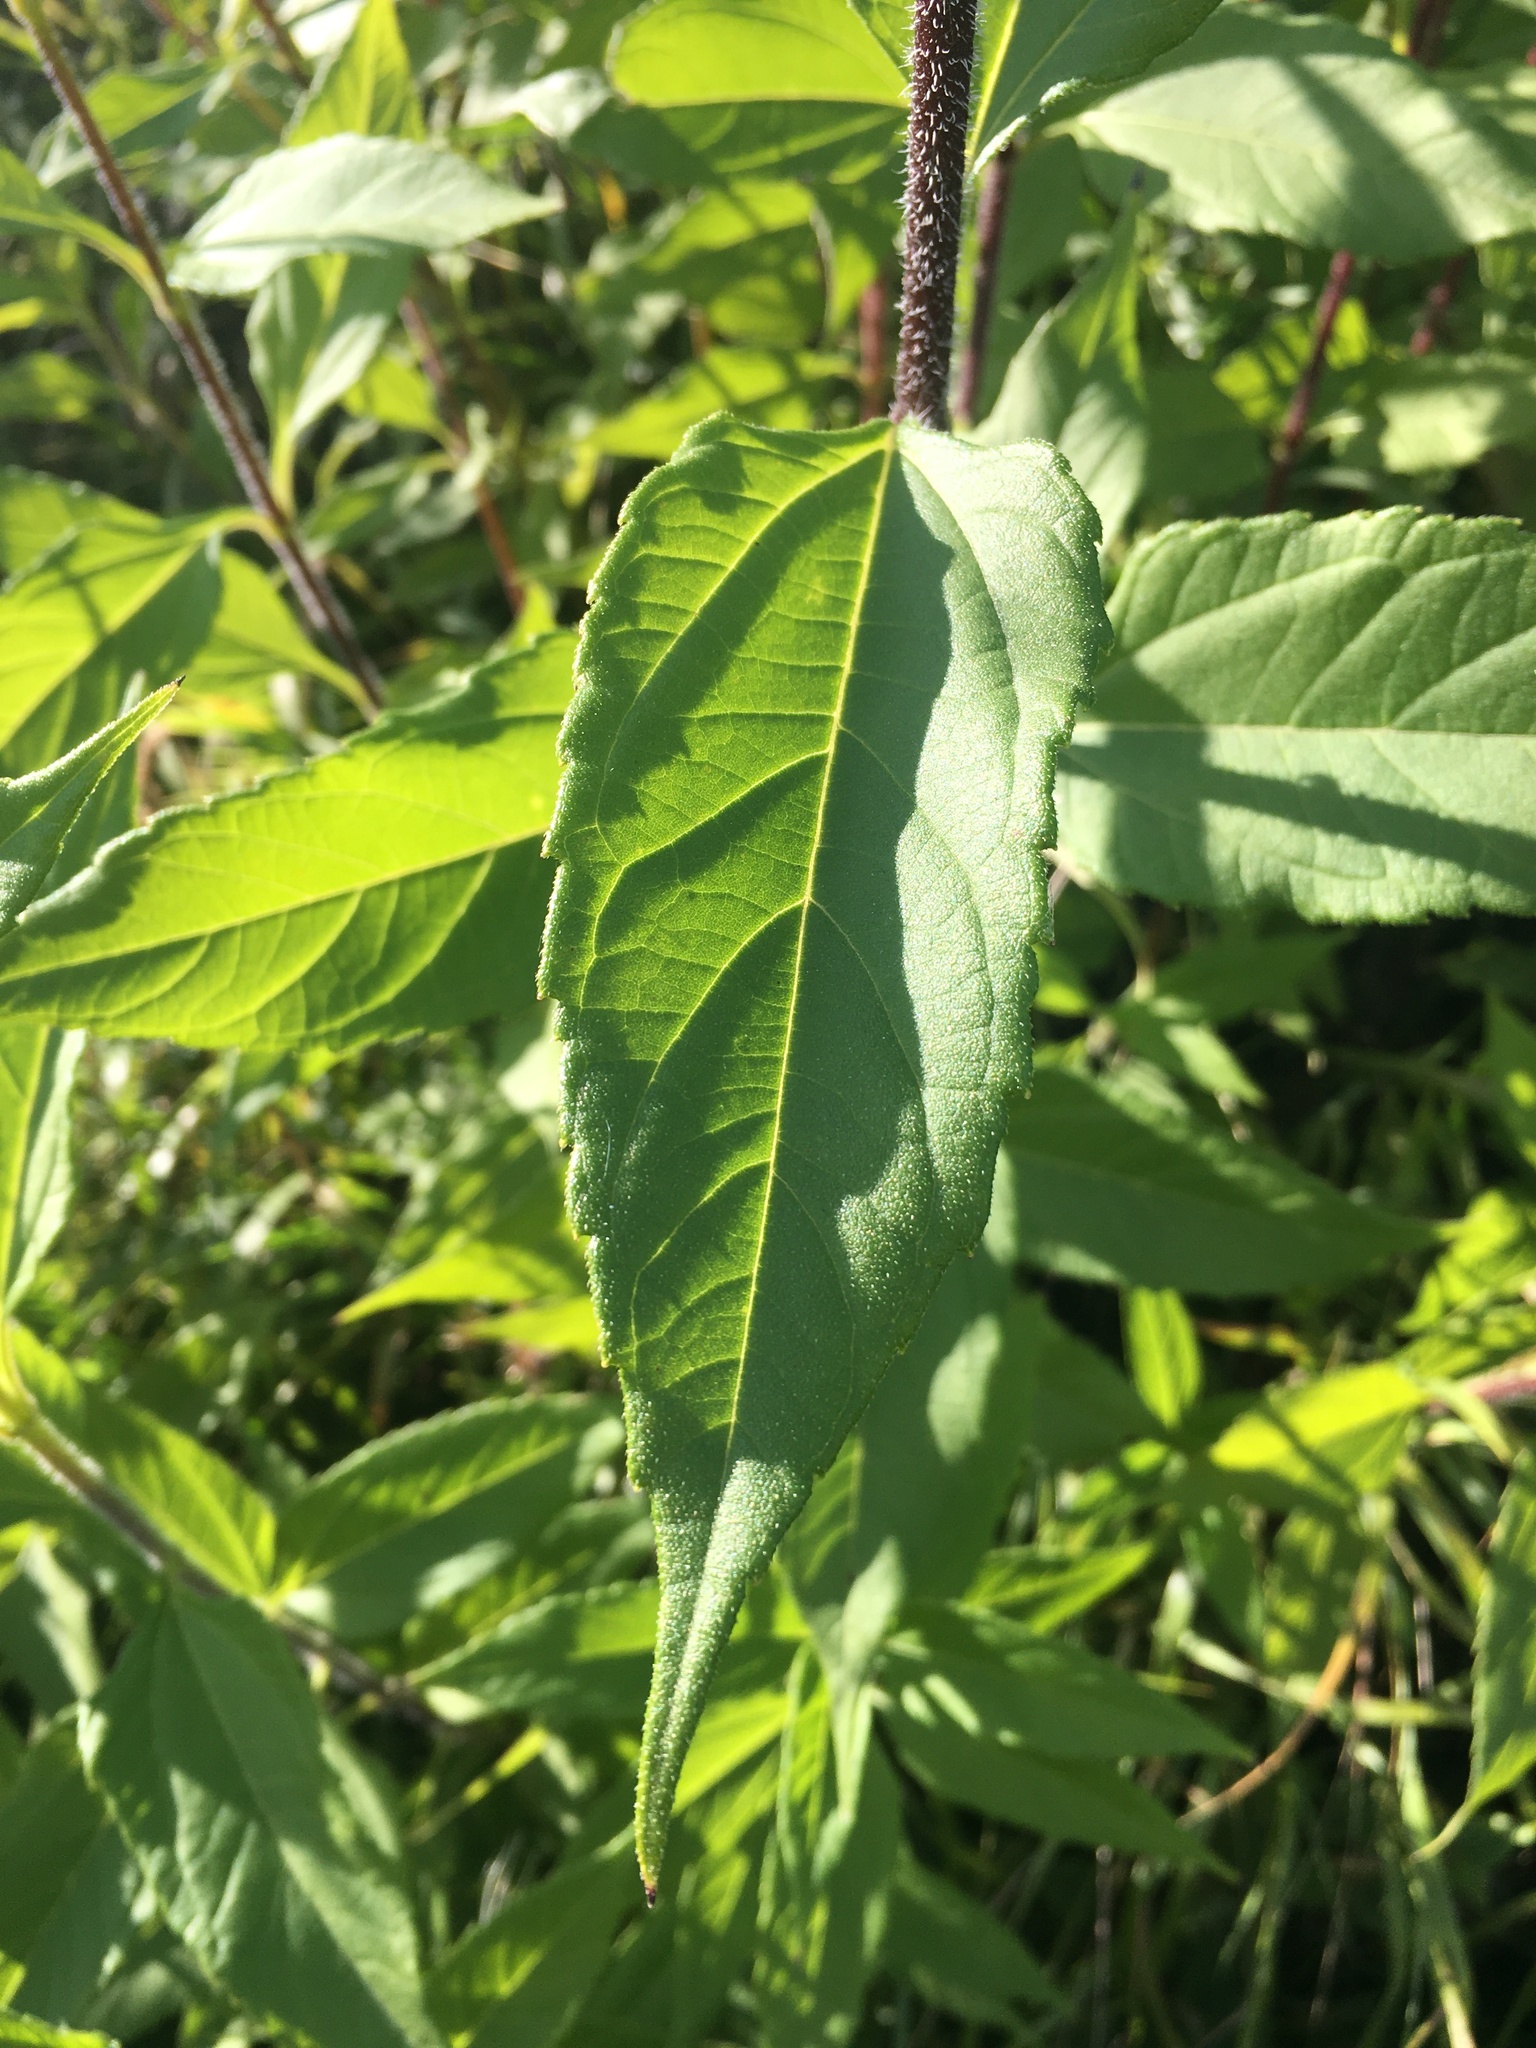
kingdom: Plantae
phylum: Tracheophyta
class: Magnoliopsida
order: Asterales
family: Asteraceae
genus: Helianthus
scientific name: Helianthus tuberosus
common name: Jerusalem artichoke
